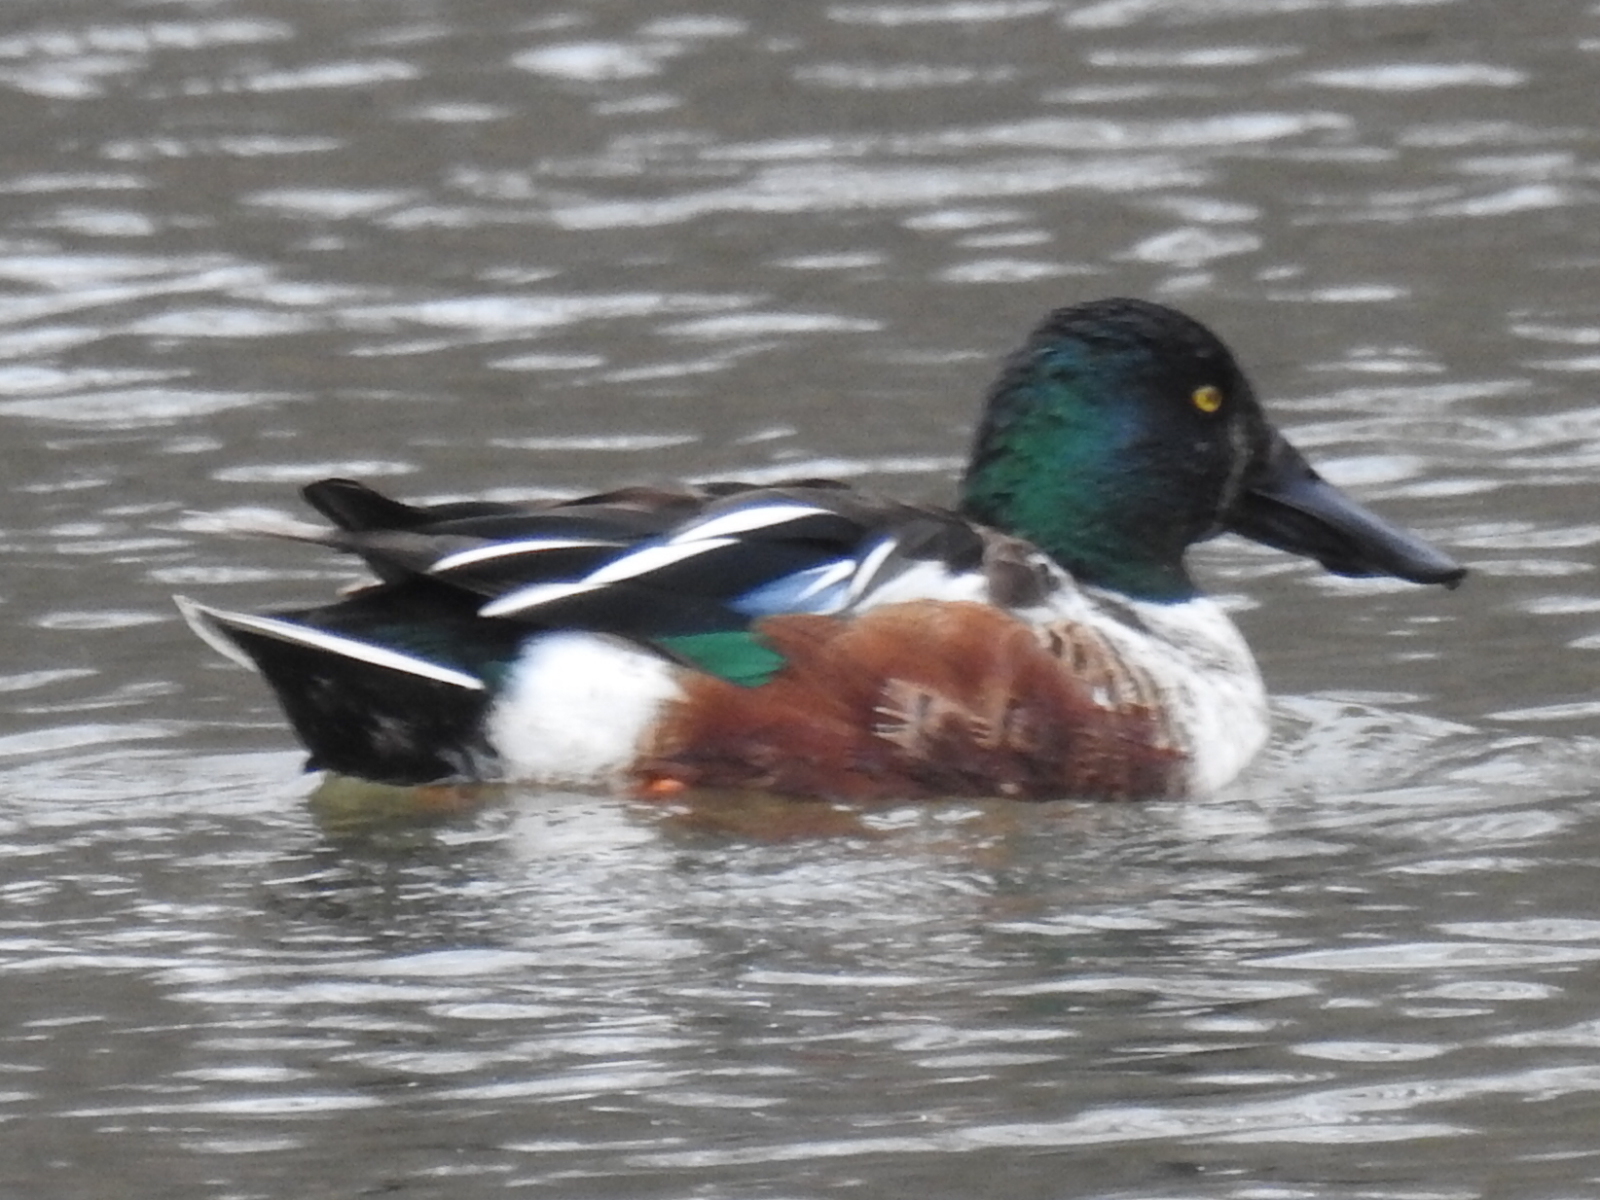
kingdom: Animalia
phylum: Chordata
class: Aves
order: Anseriformes
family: Anatidae
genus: Spatula
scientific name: Spatula clypeata
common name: Northern shoveler
